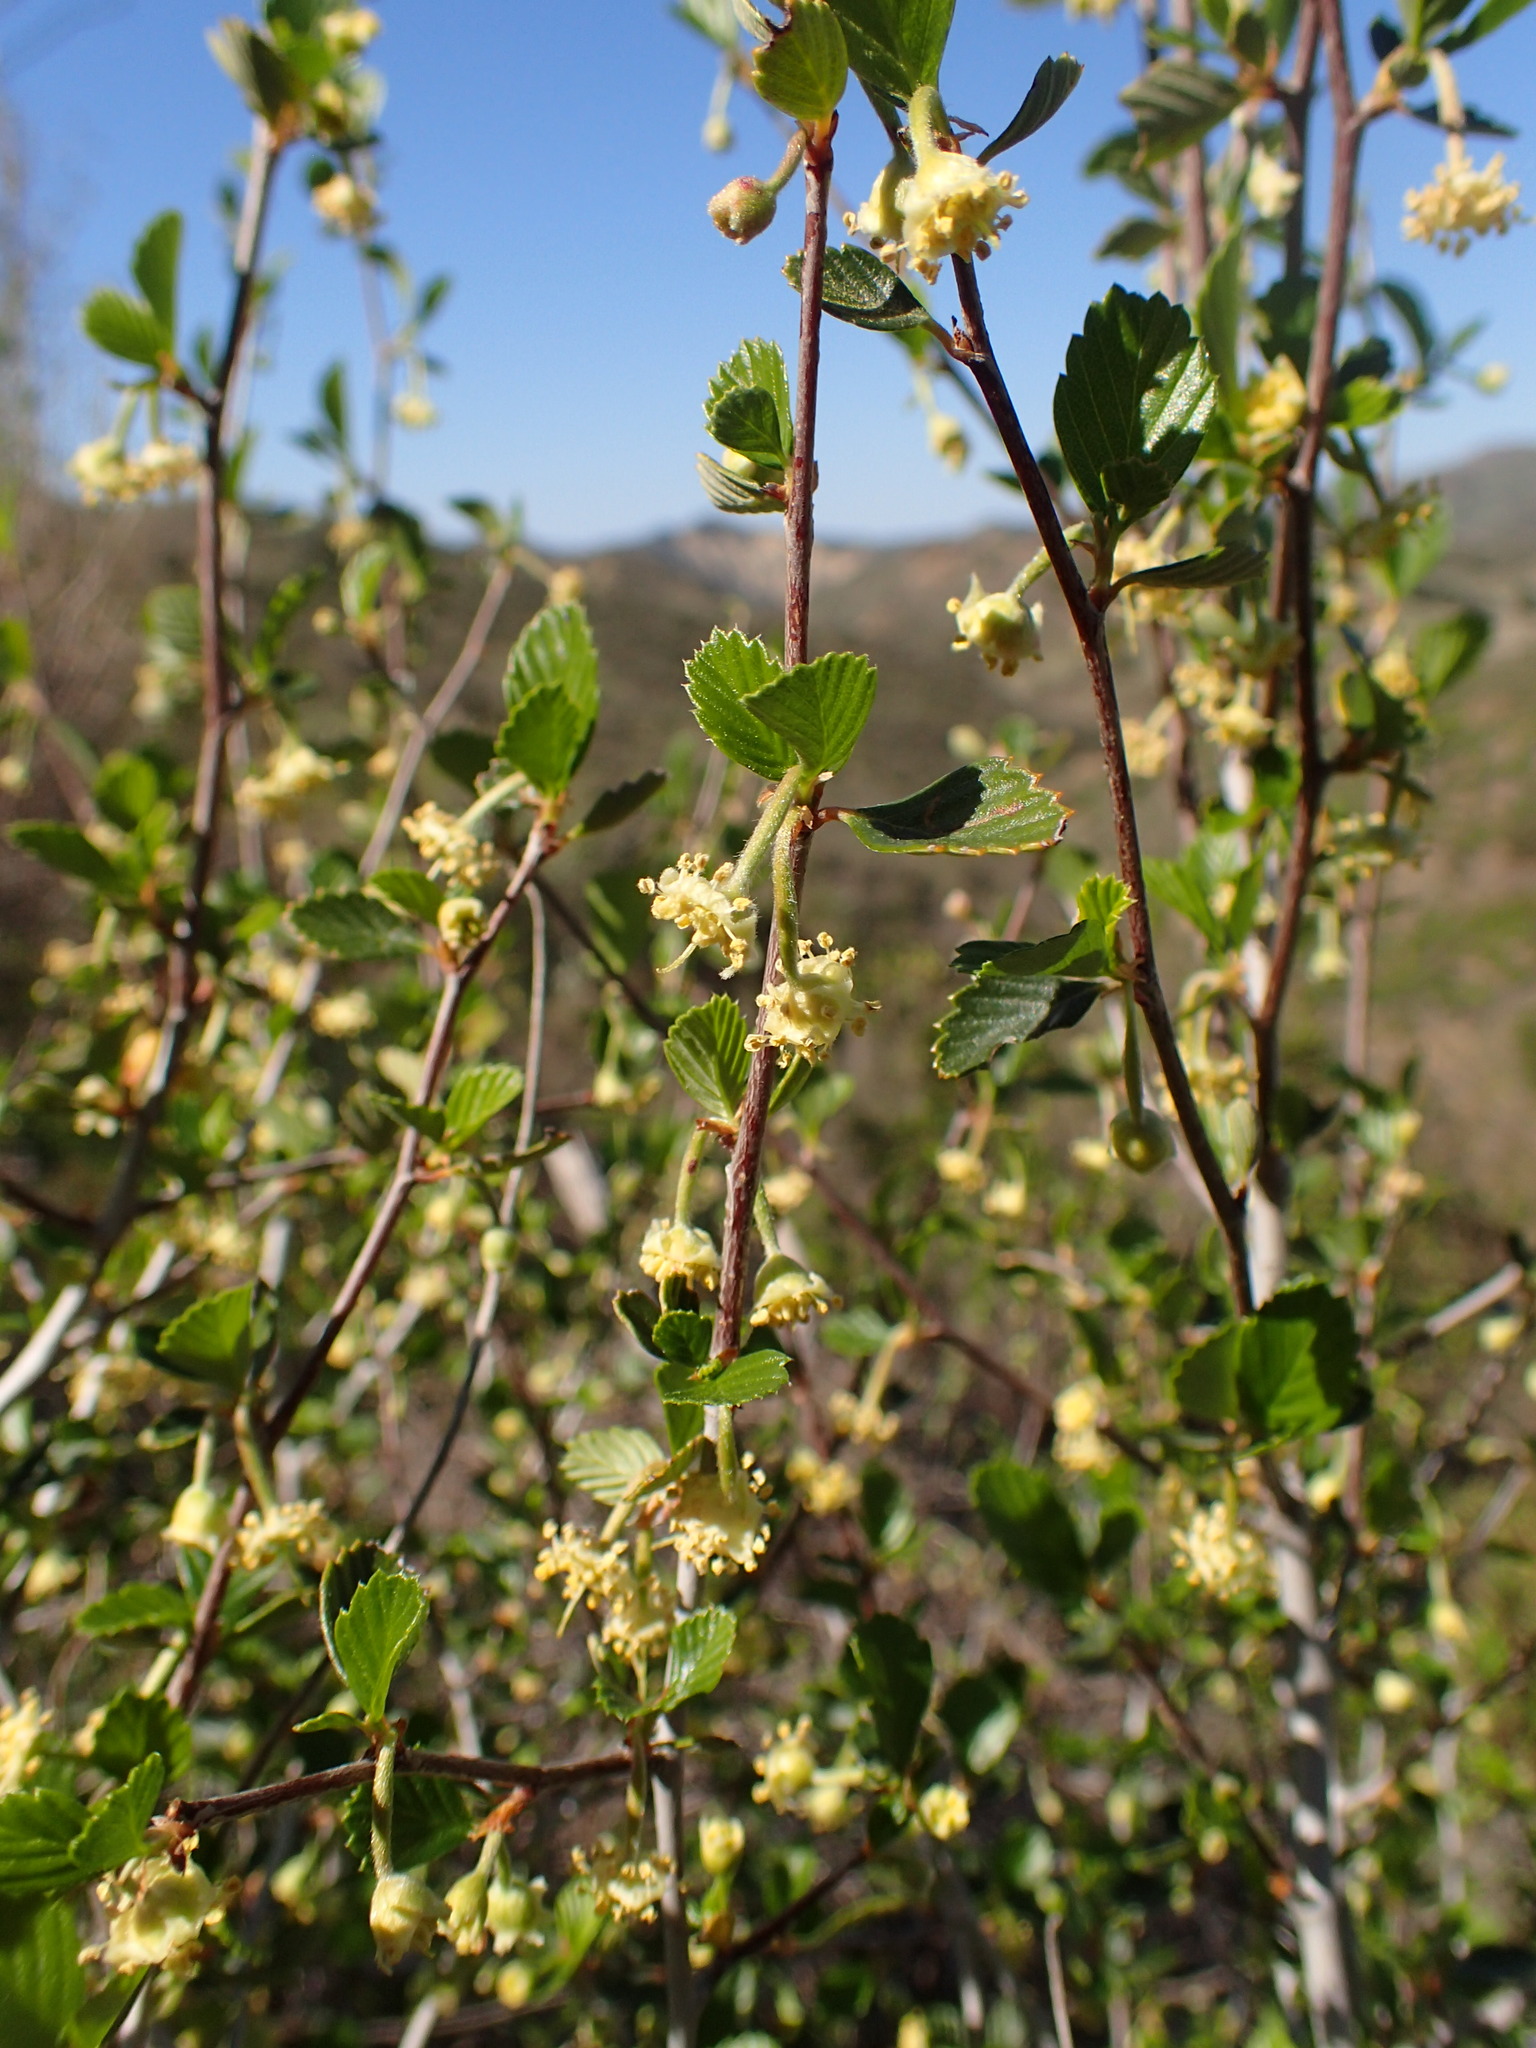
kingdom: Plantae
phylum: Tracheophyta
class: Magnoliopsida
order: Rosales
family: Rosaceae
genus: Cercocarpus
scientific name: Cercocarpus betuloides
